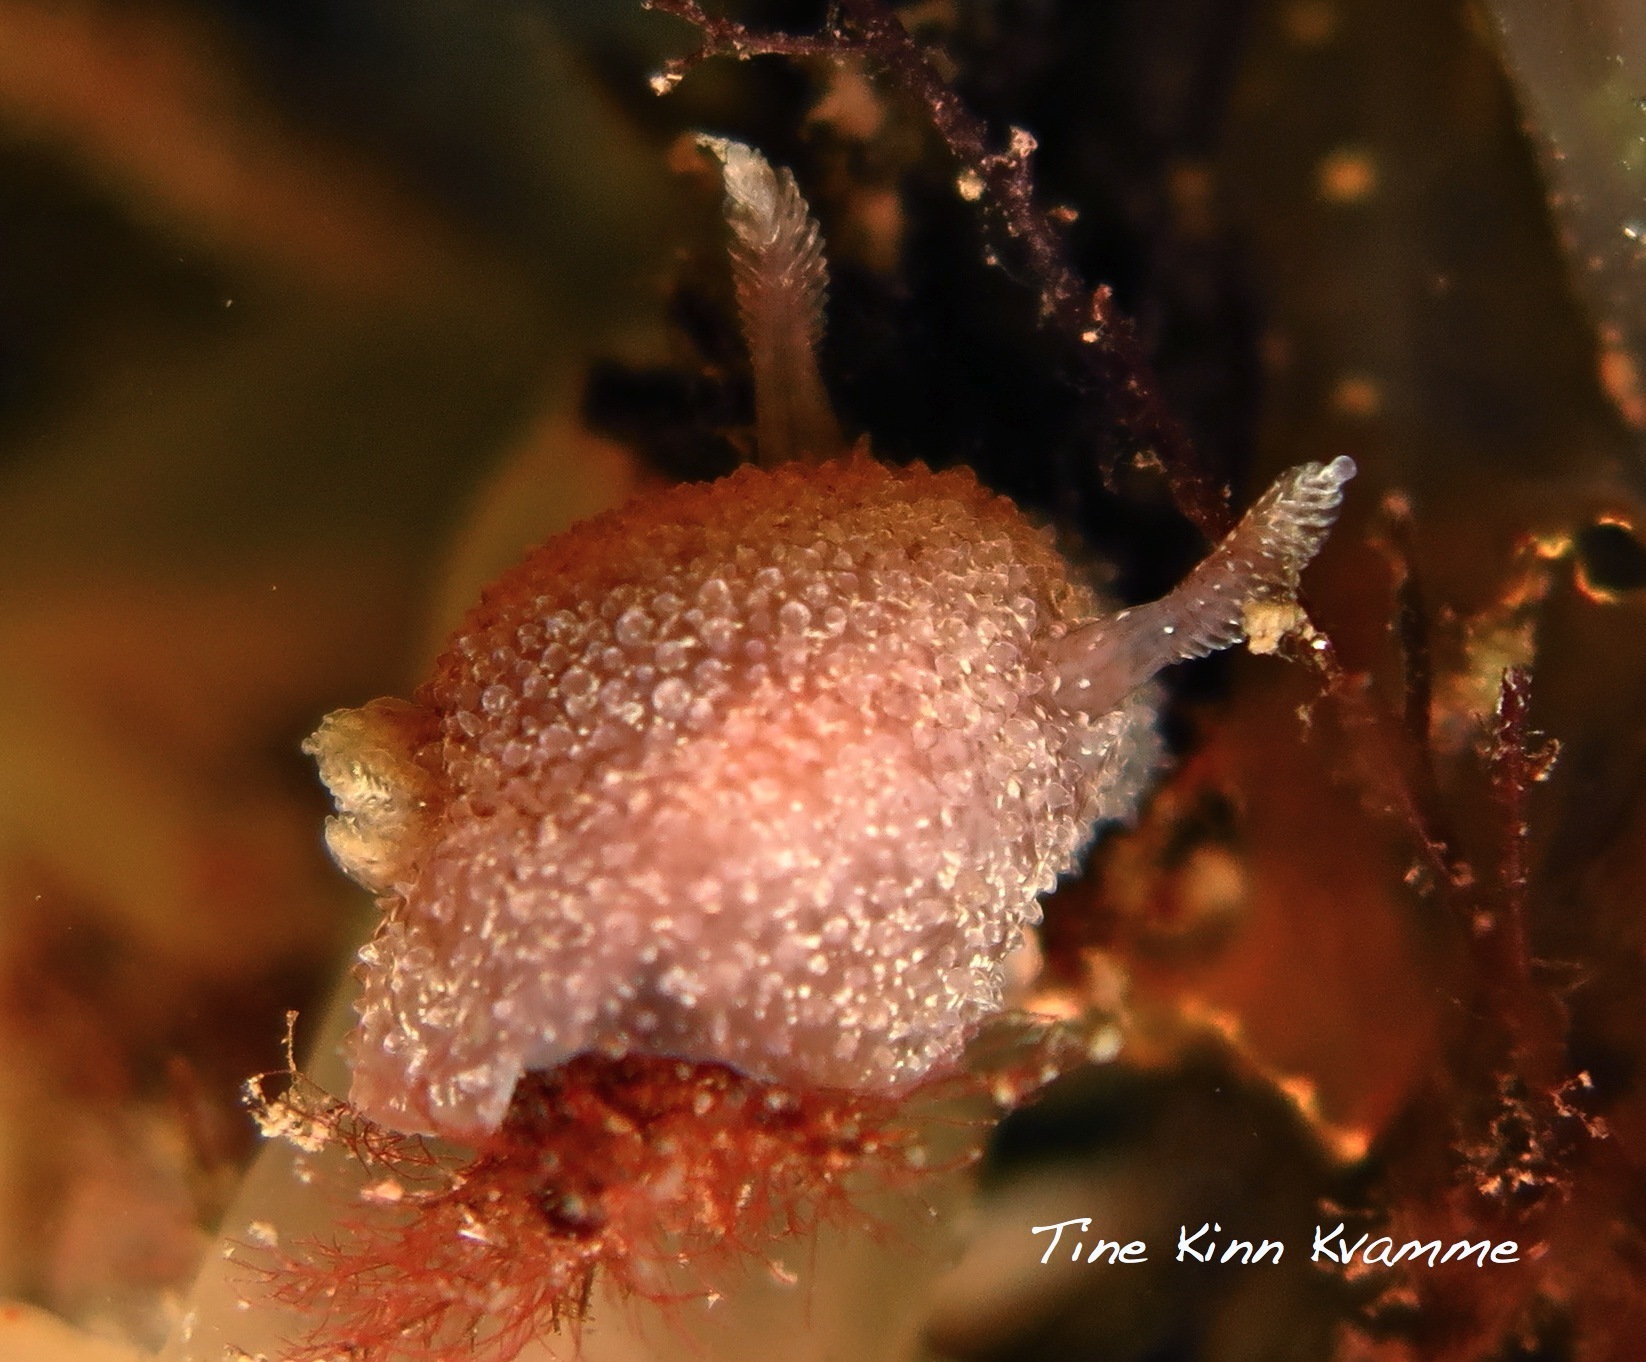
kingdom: Animalia
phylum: Mollusca
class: Gastropoda
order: Nudibranchia
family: Onchidorididae
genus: Acanthodoris
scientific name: Acanthodoris pilosa
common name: Hairy spiny doris
